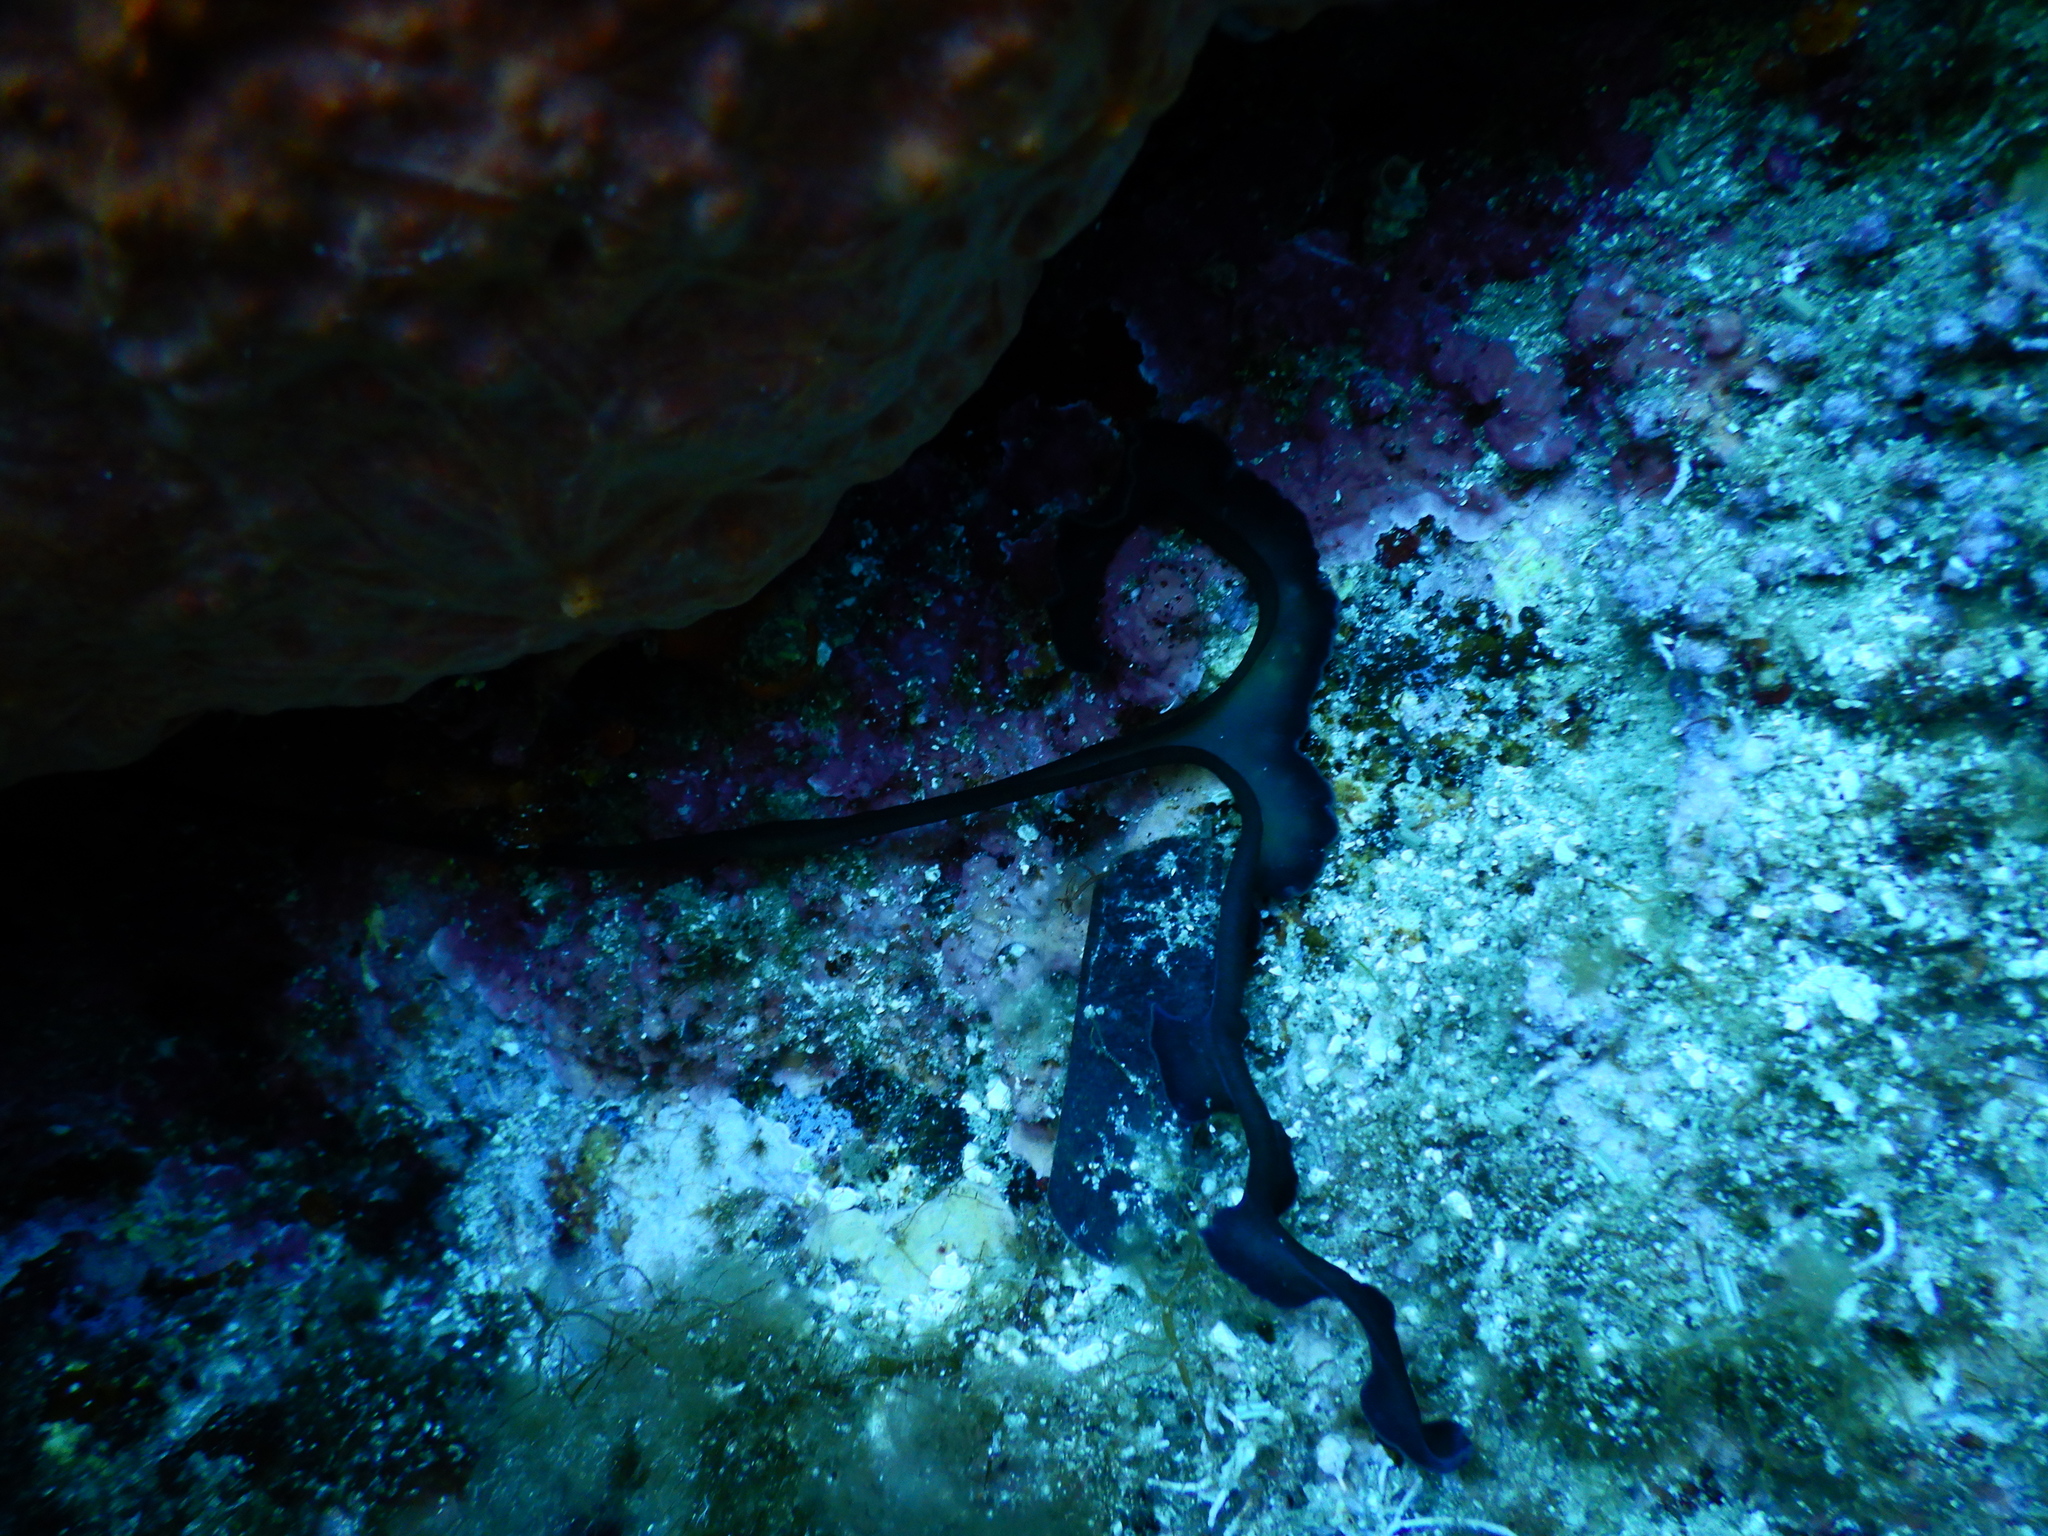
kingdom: Animalia
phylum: Annelida
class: Polychaeta
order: Echiuroidea
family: Bonelliidae
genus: Bonellia
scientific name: Bonellia viridis
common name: Green spoon worm
